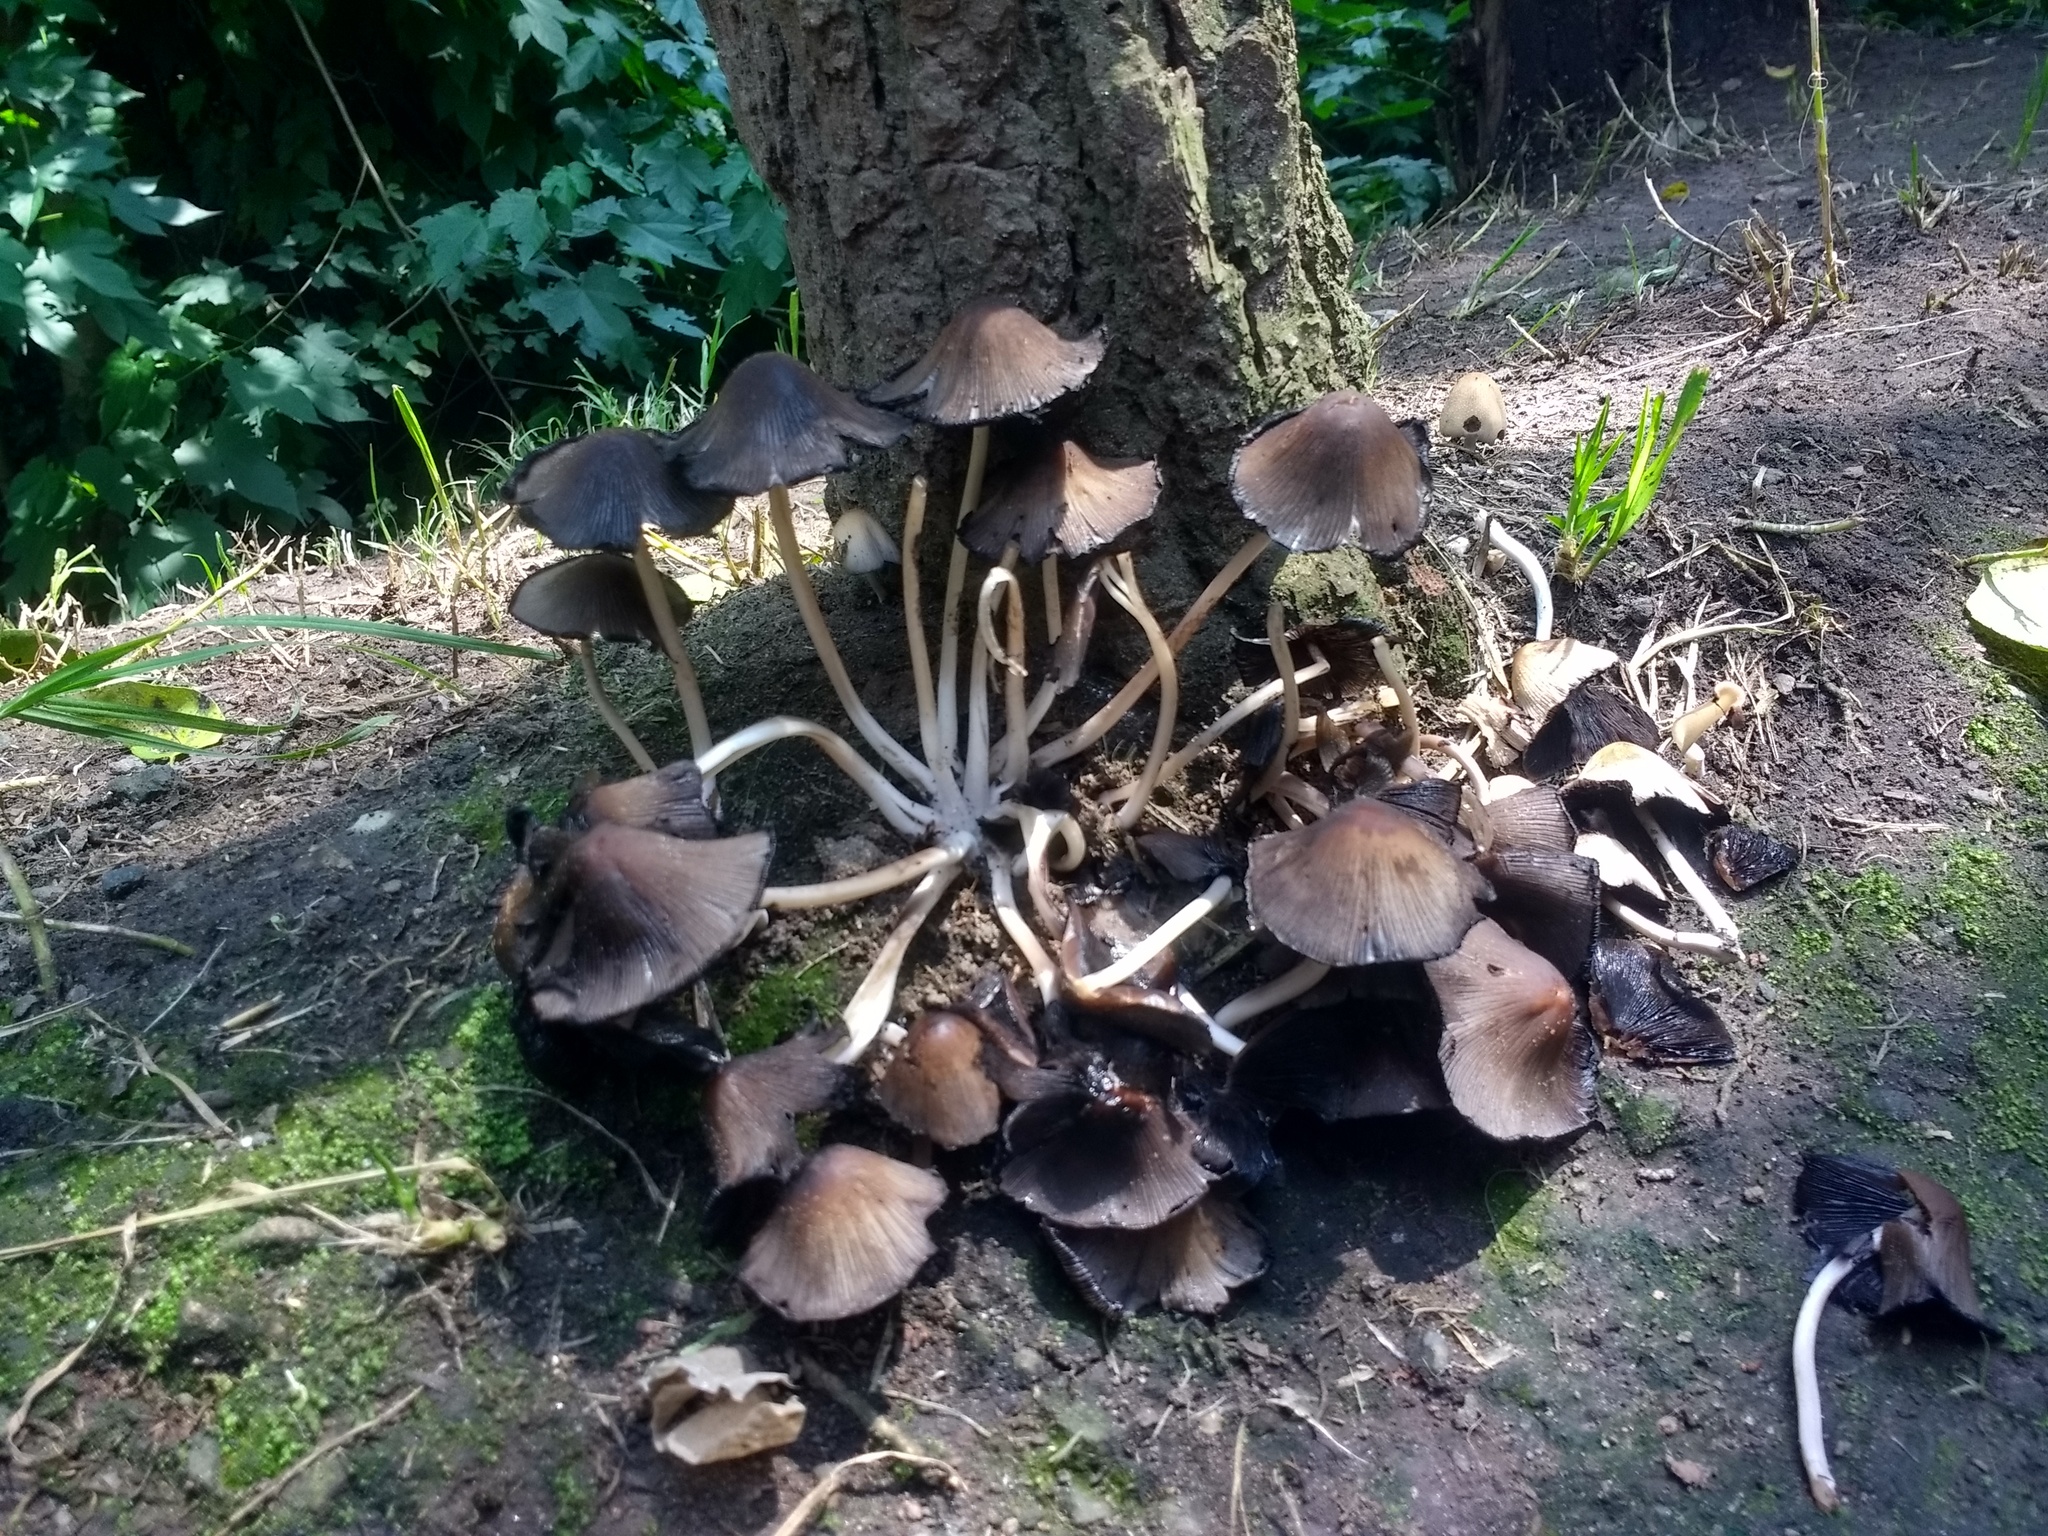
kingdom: Fungi
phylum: Basidiomycota
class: Agaricomycetes
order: Agaricales
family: Psathyrellaceae
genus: Coprinellus
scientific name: Coprinellus micaceus
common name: Glistening ink-cap
